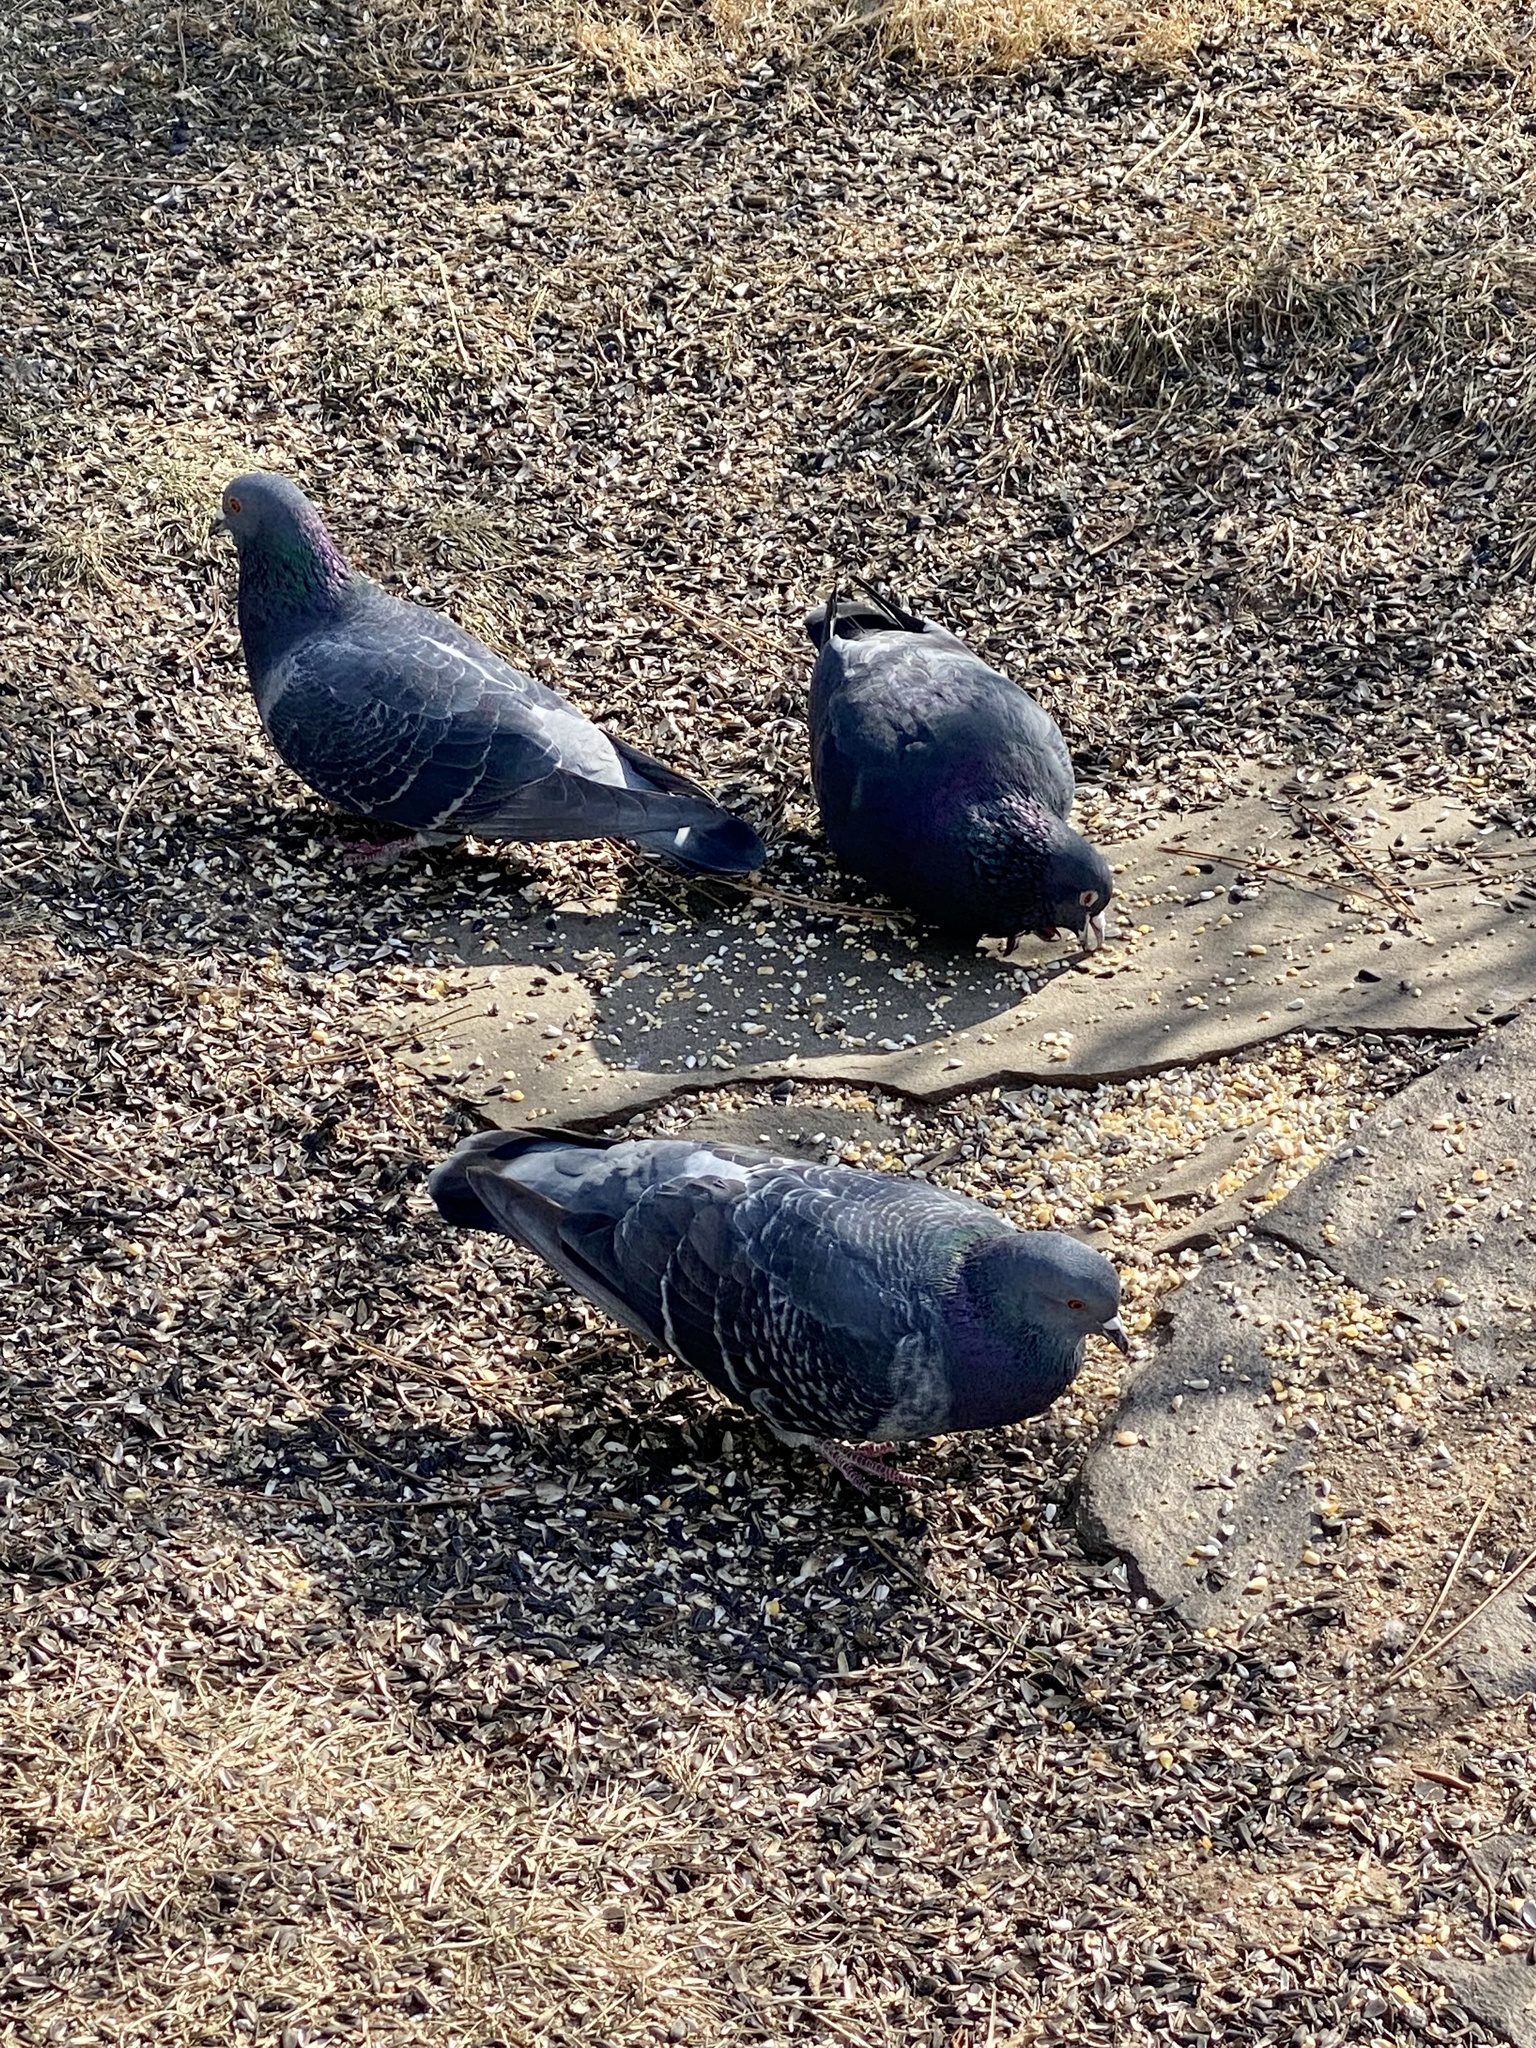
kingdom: Animalia
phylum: Chordata
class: Aves
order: Columbiformes
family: Columbidae
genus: Columba
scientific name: Columba livia
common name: Rock pigeon
